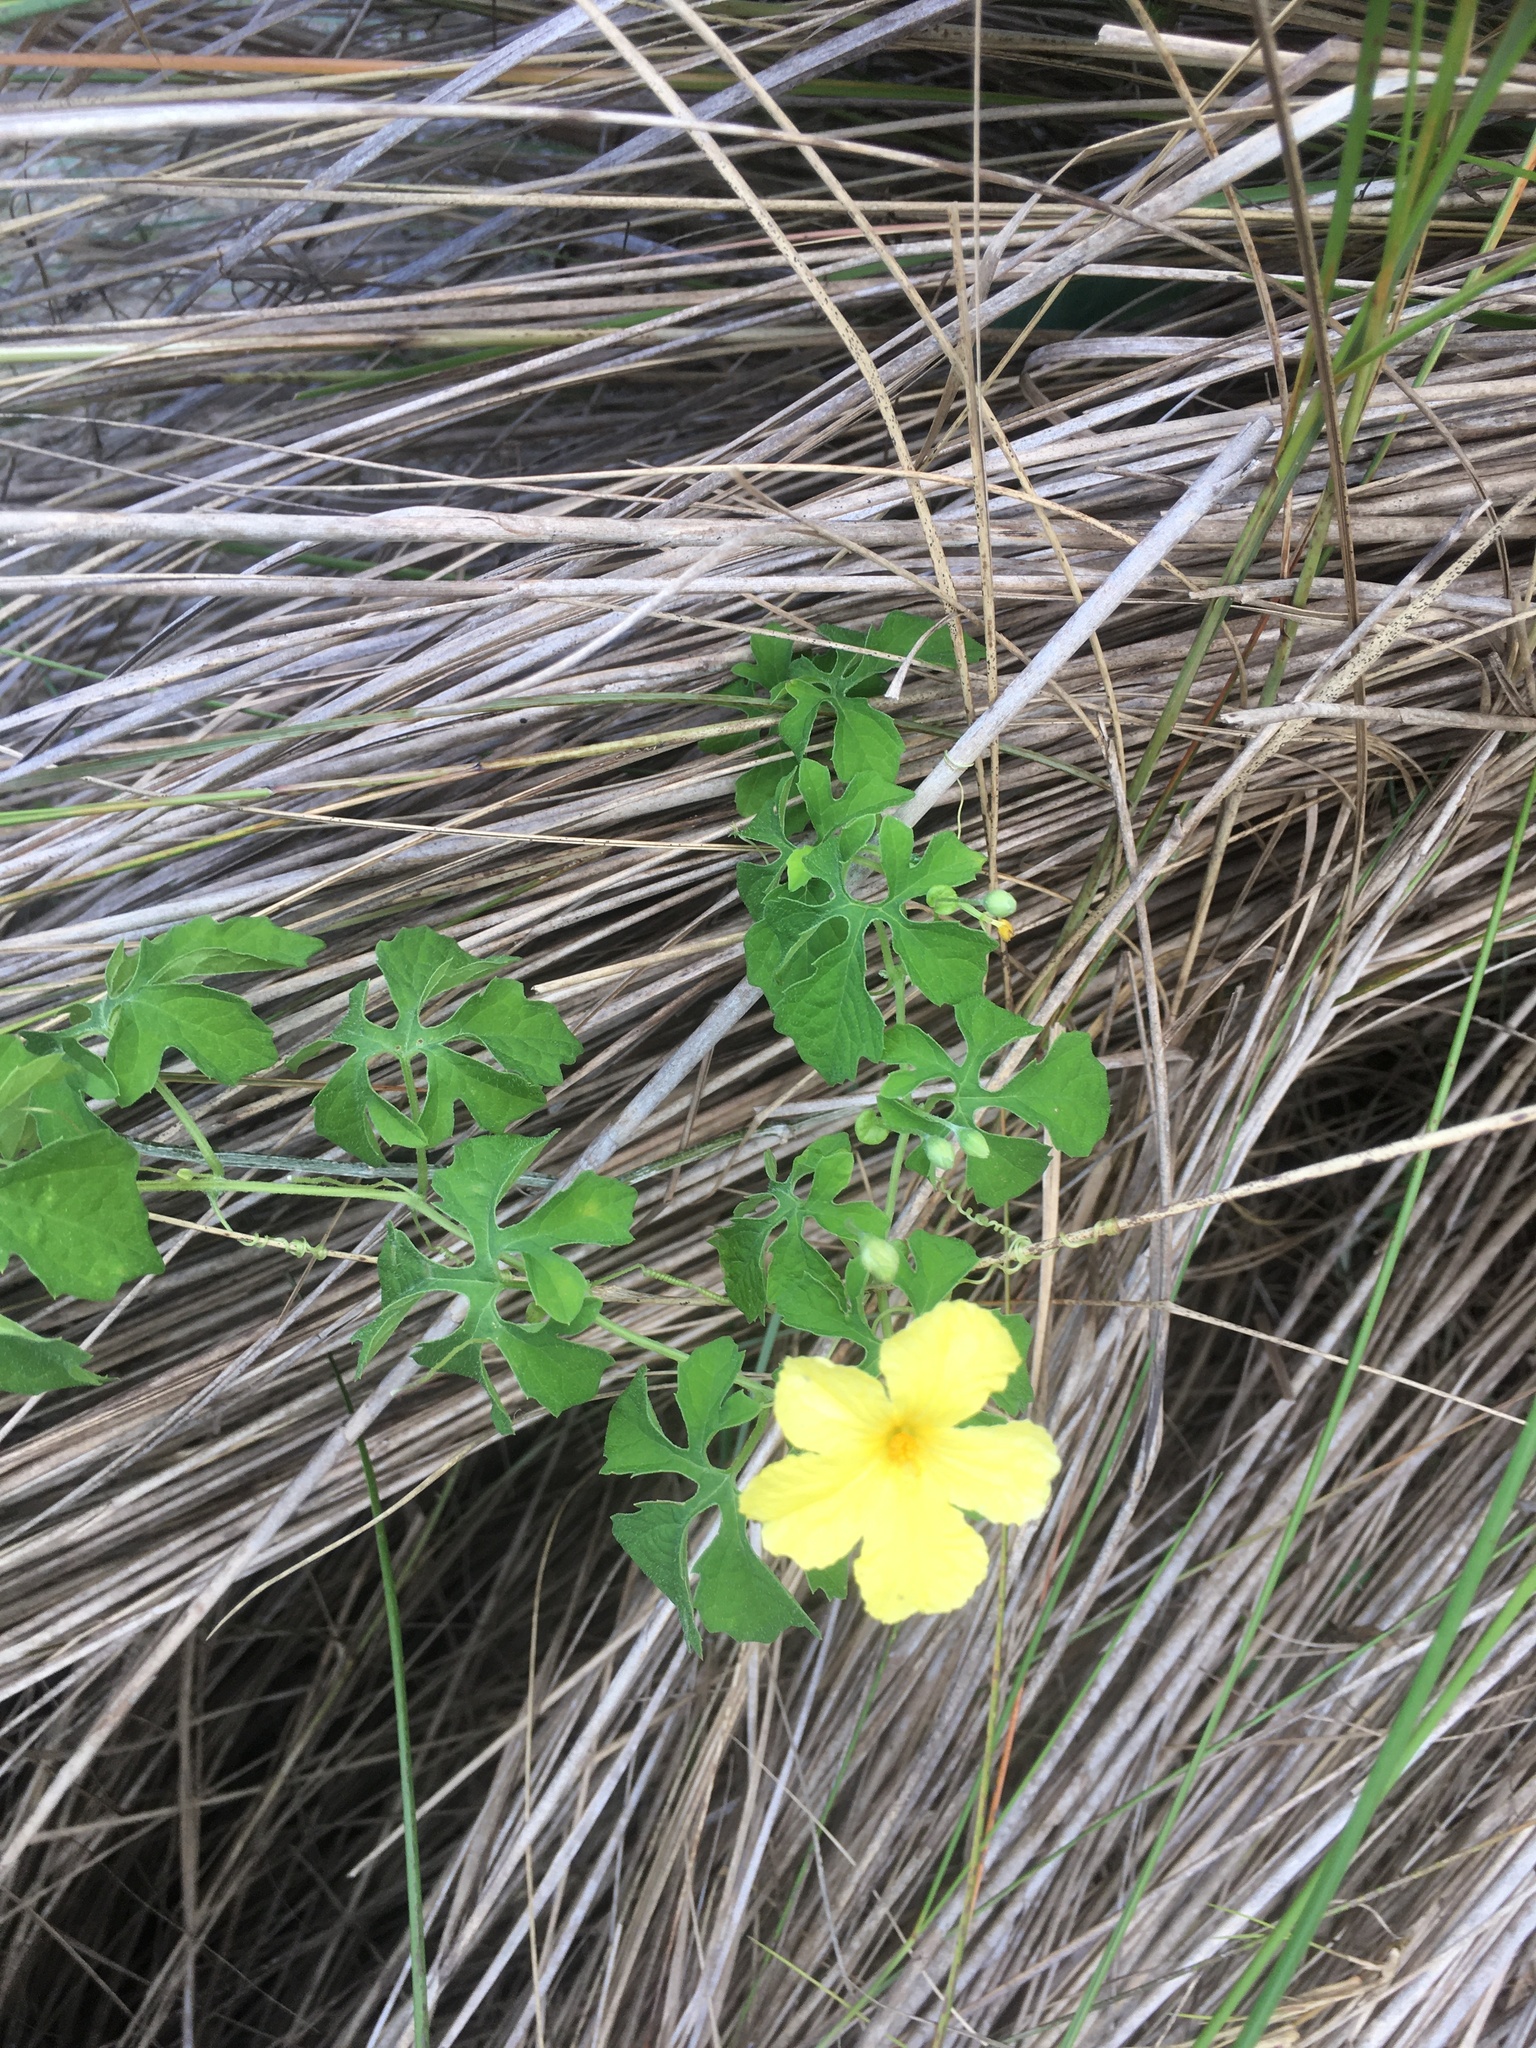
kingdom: Plantae
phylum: Tracheophyta
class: Magnoliopsida
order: Cucurbitales
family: Cucurbitaceae
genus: Momordica
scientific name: Momordica charantia
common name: Balsampear
